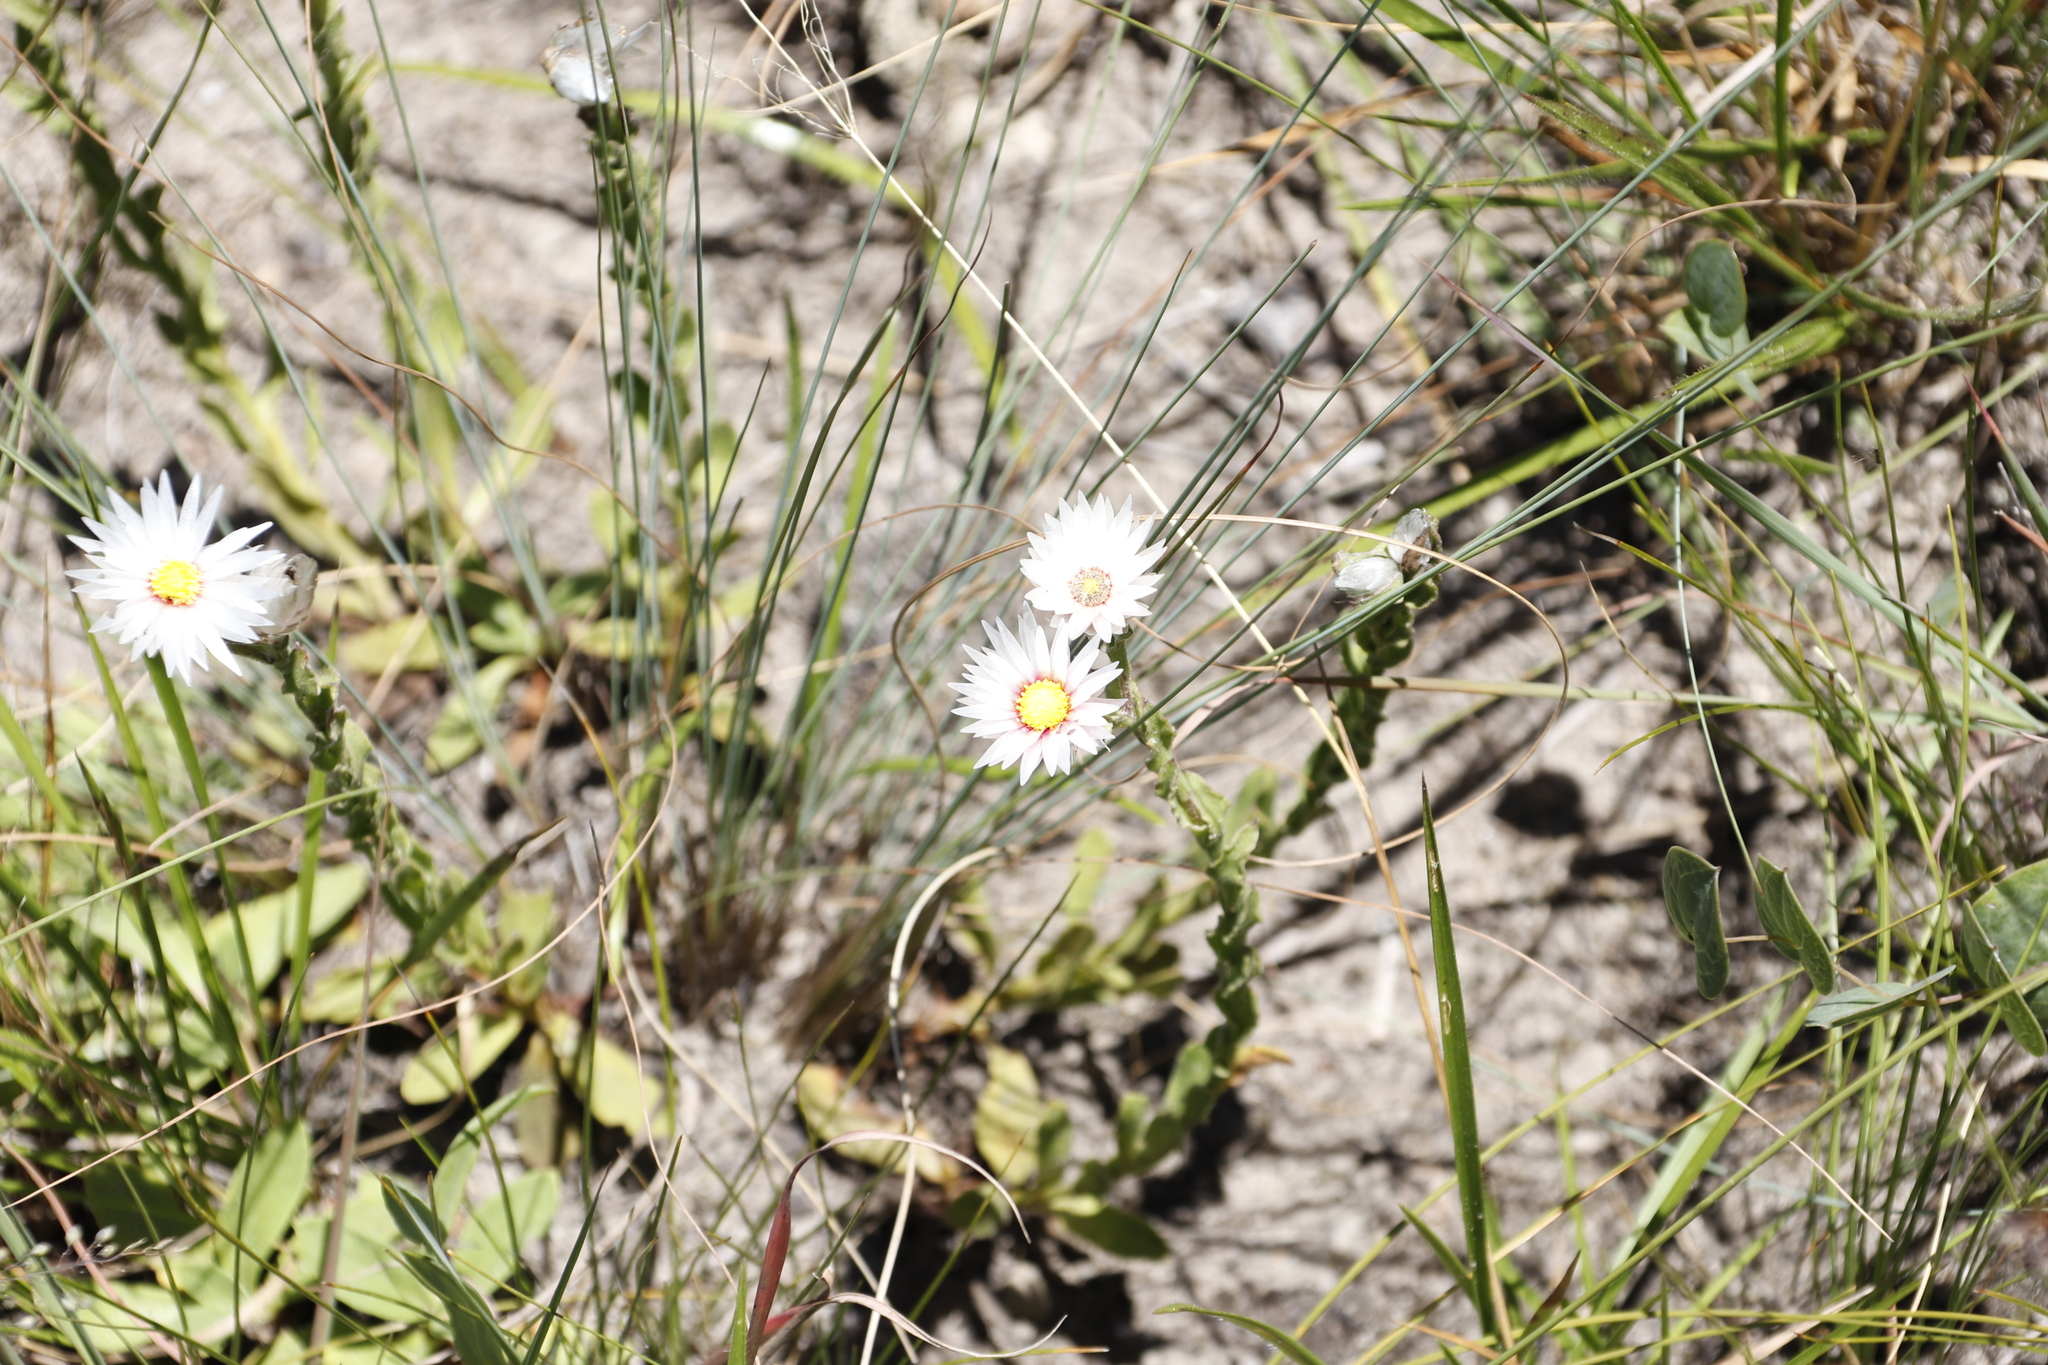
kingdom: Plantae
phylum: Tracheophyta
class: Magnoliopsida
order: Asterales
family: Asteraceae
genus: Helichrysum
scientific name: Helichrysum monticola
